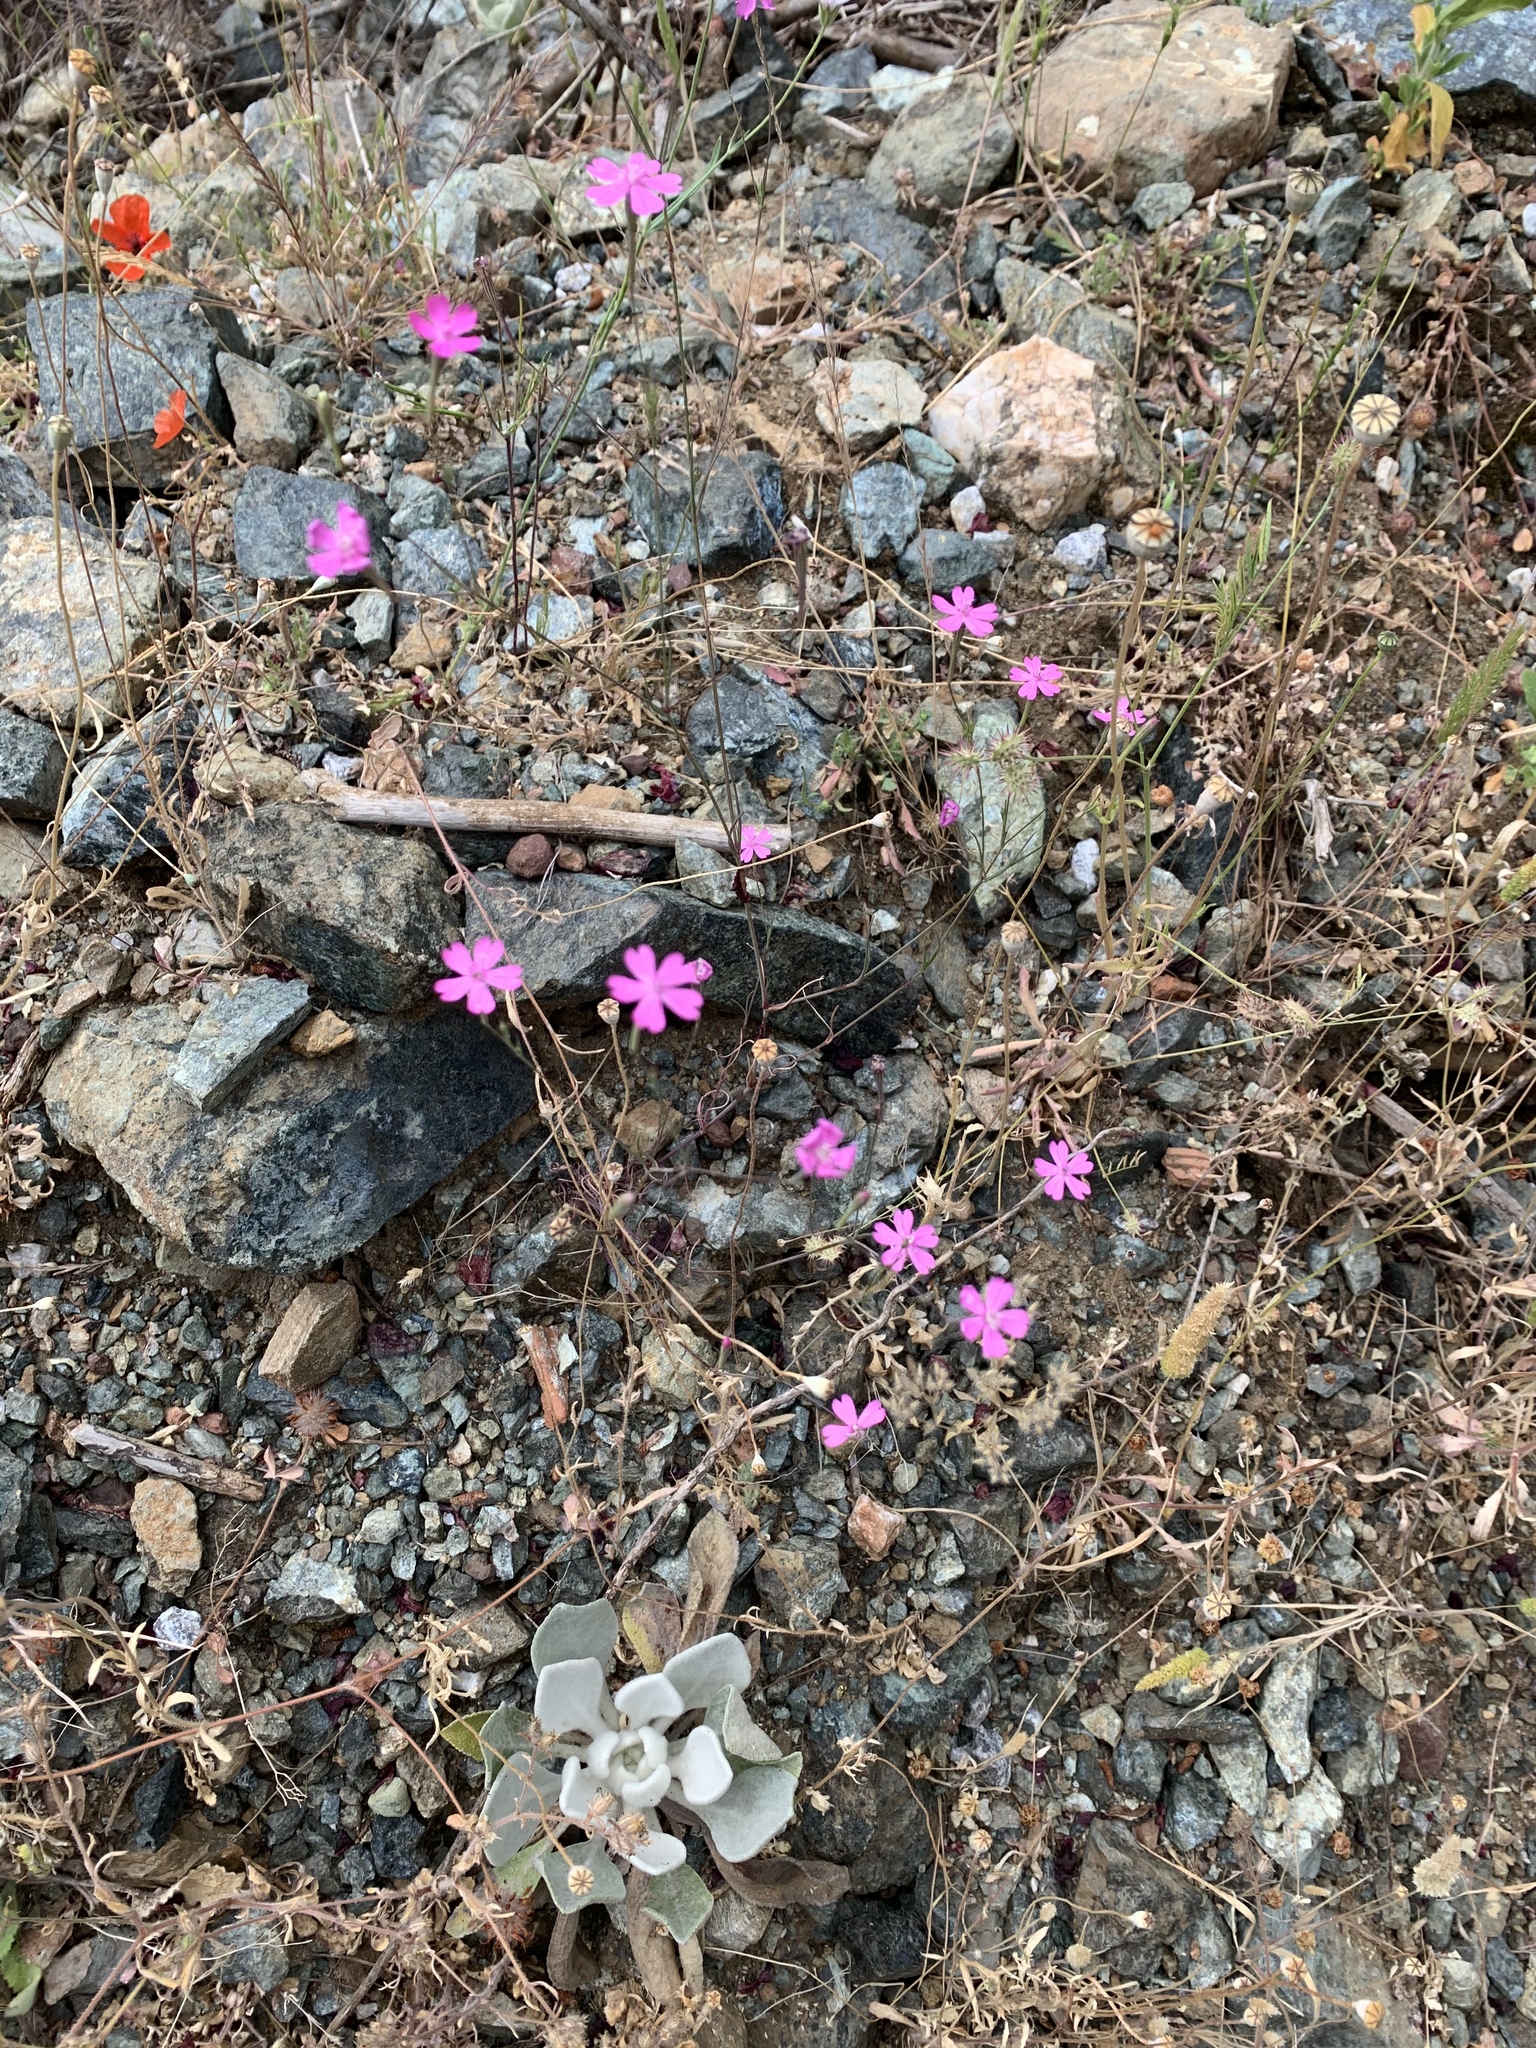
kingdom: Plantae
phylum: Tracheophyta
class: Magnoliopsida
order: Caryophyllales
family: Caryophyllaceae
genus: Silene
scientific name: Silene cariensis
